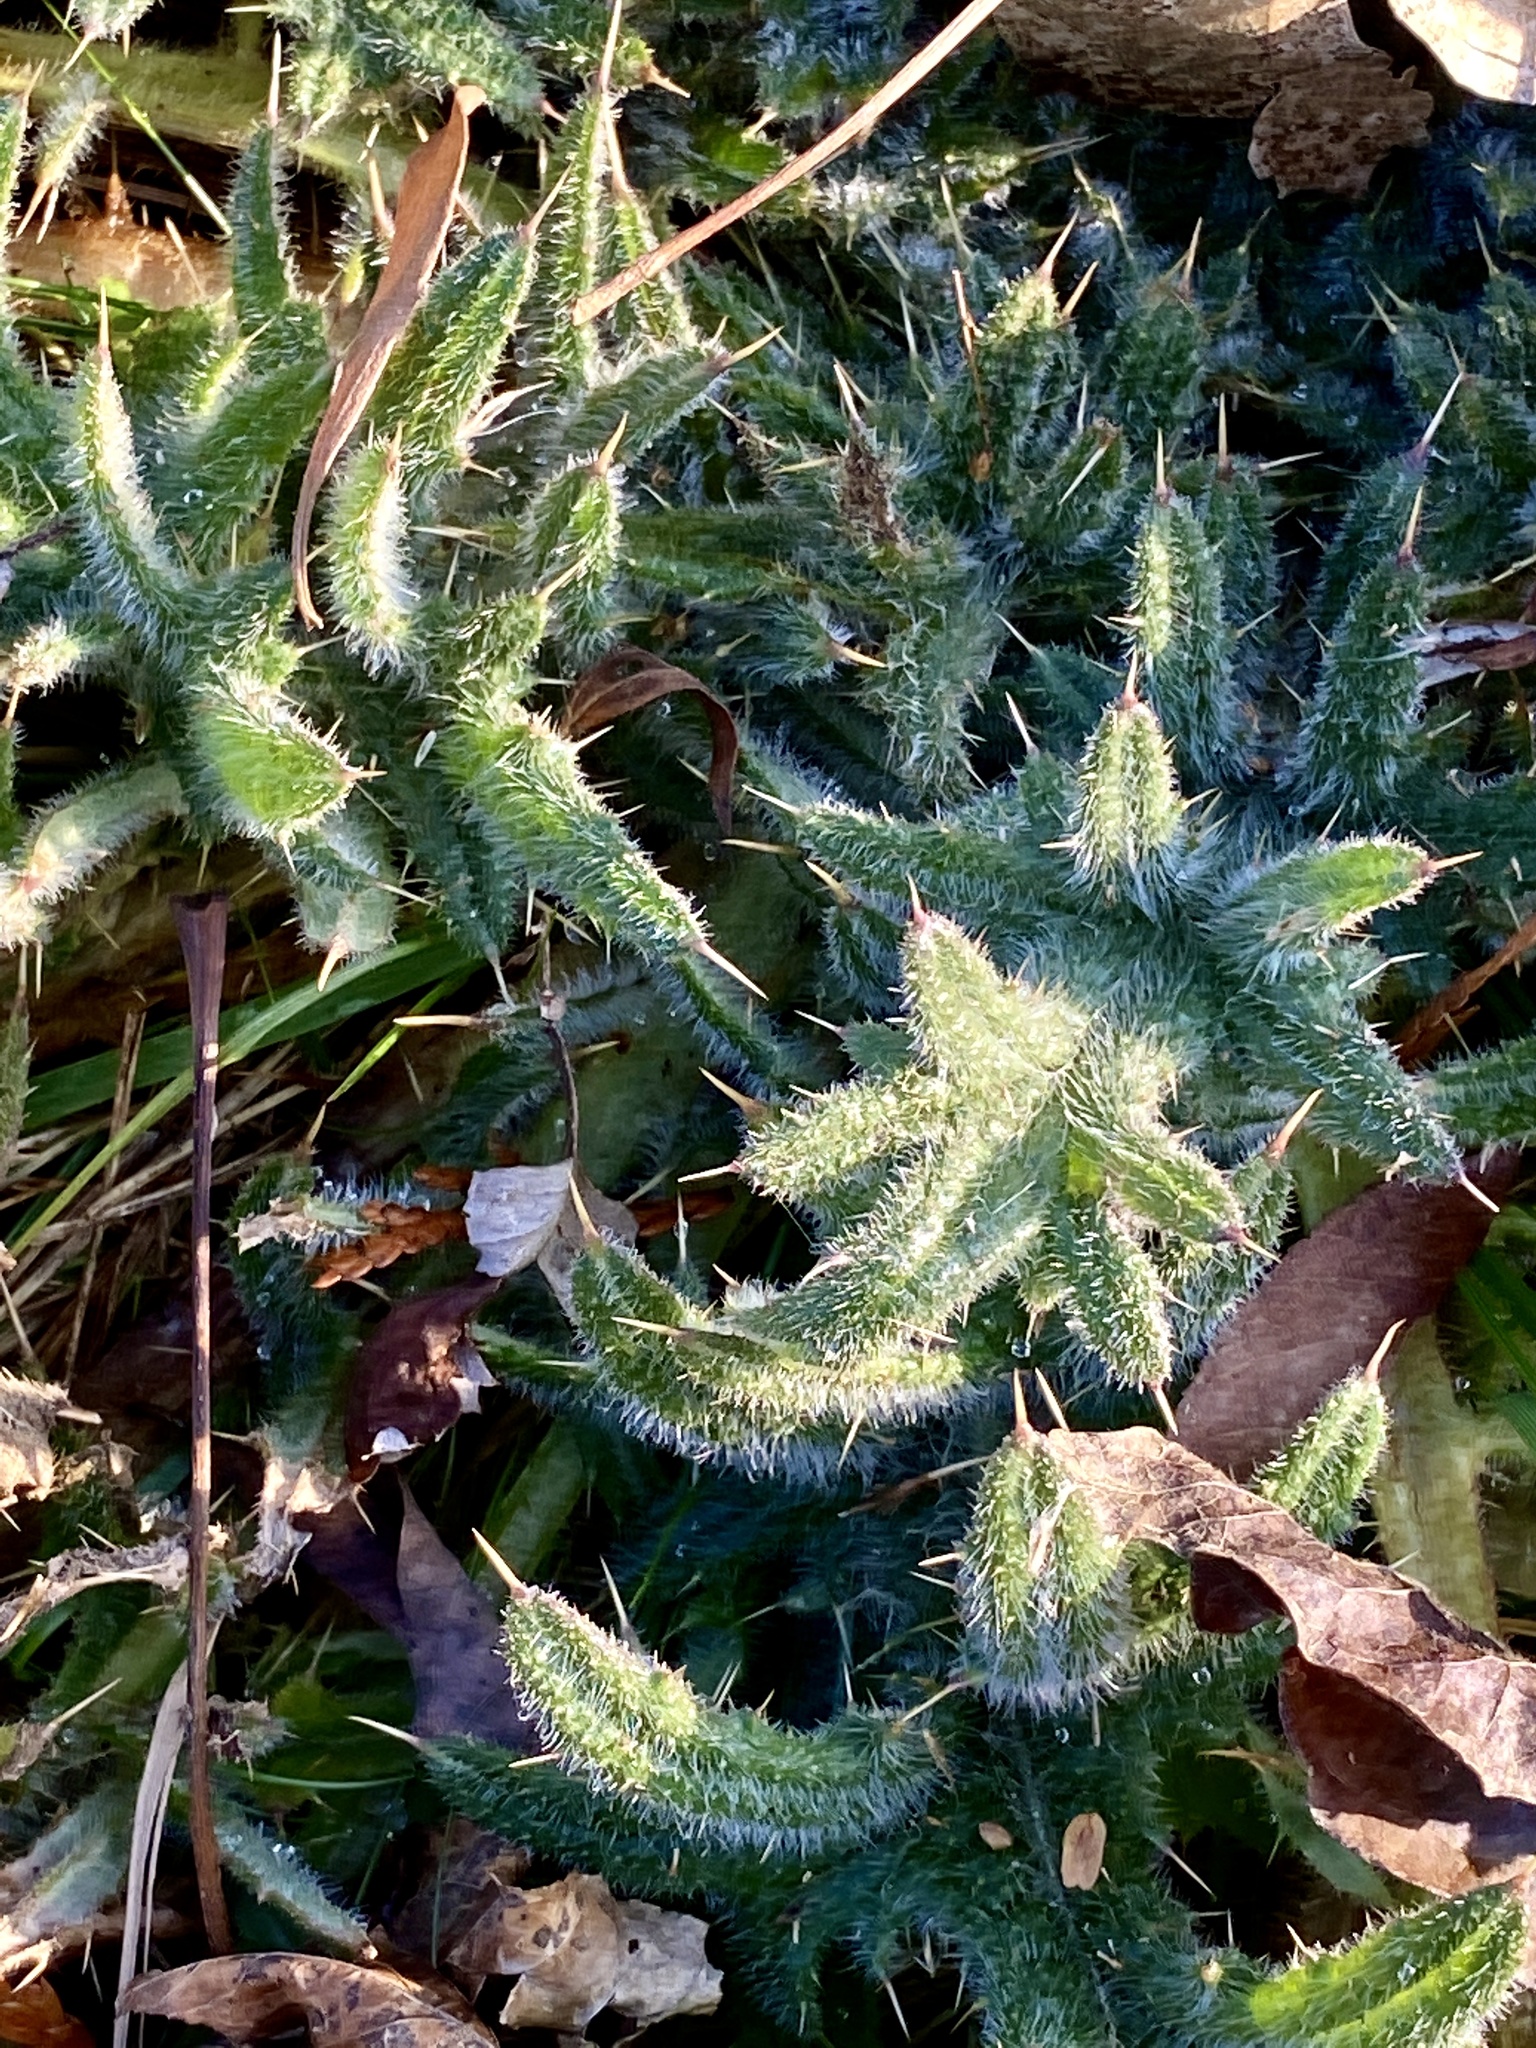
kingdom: Plantae
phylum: Tracheophyta
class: Magnoliopsida
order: Asterales
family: Asteraceae
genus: Cirsium
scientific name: Cirsium vulgare
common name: Bull thistle
